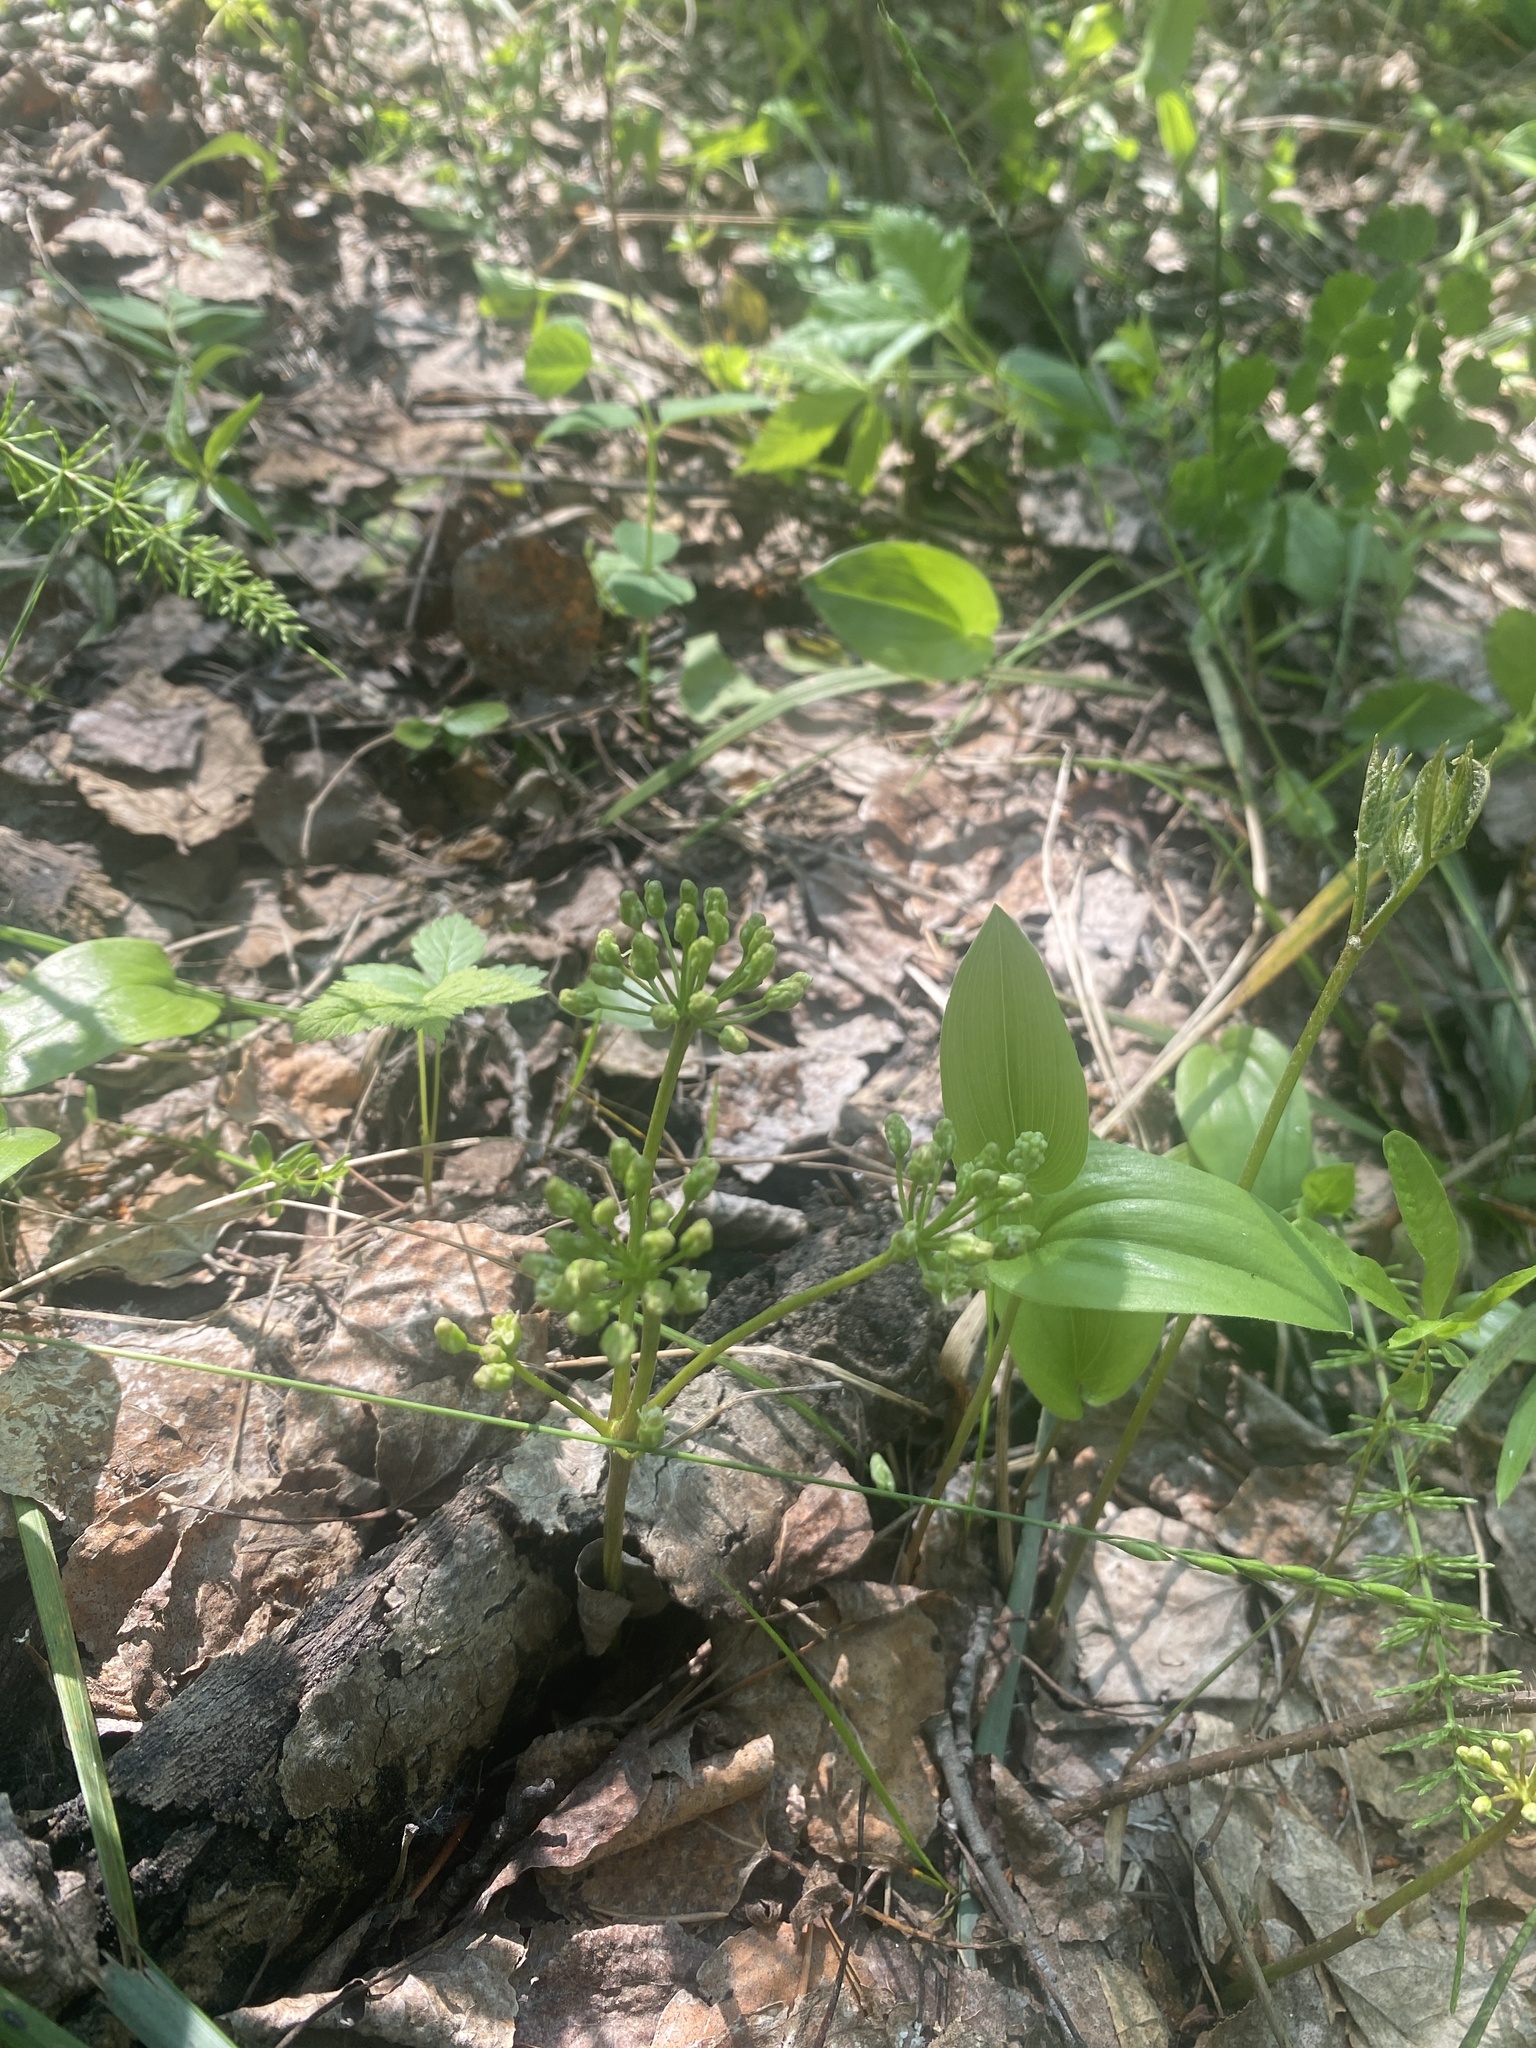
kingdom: Plantae
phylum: Tracheophyta
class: Magnoliopsida
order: Apiales
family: Araliaceae
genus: Aralia
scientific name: Aralia nudicaulis
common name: Wild sarsaparilla
